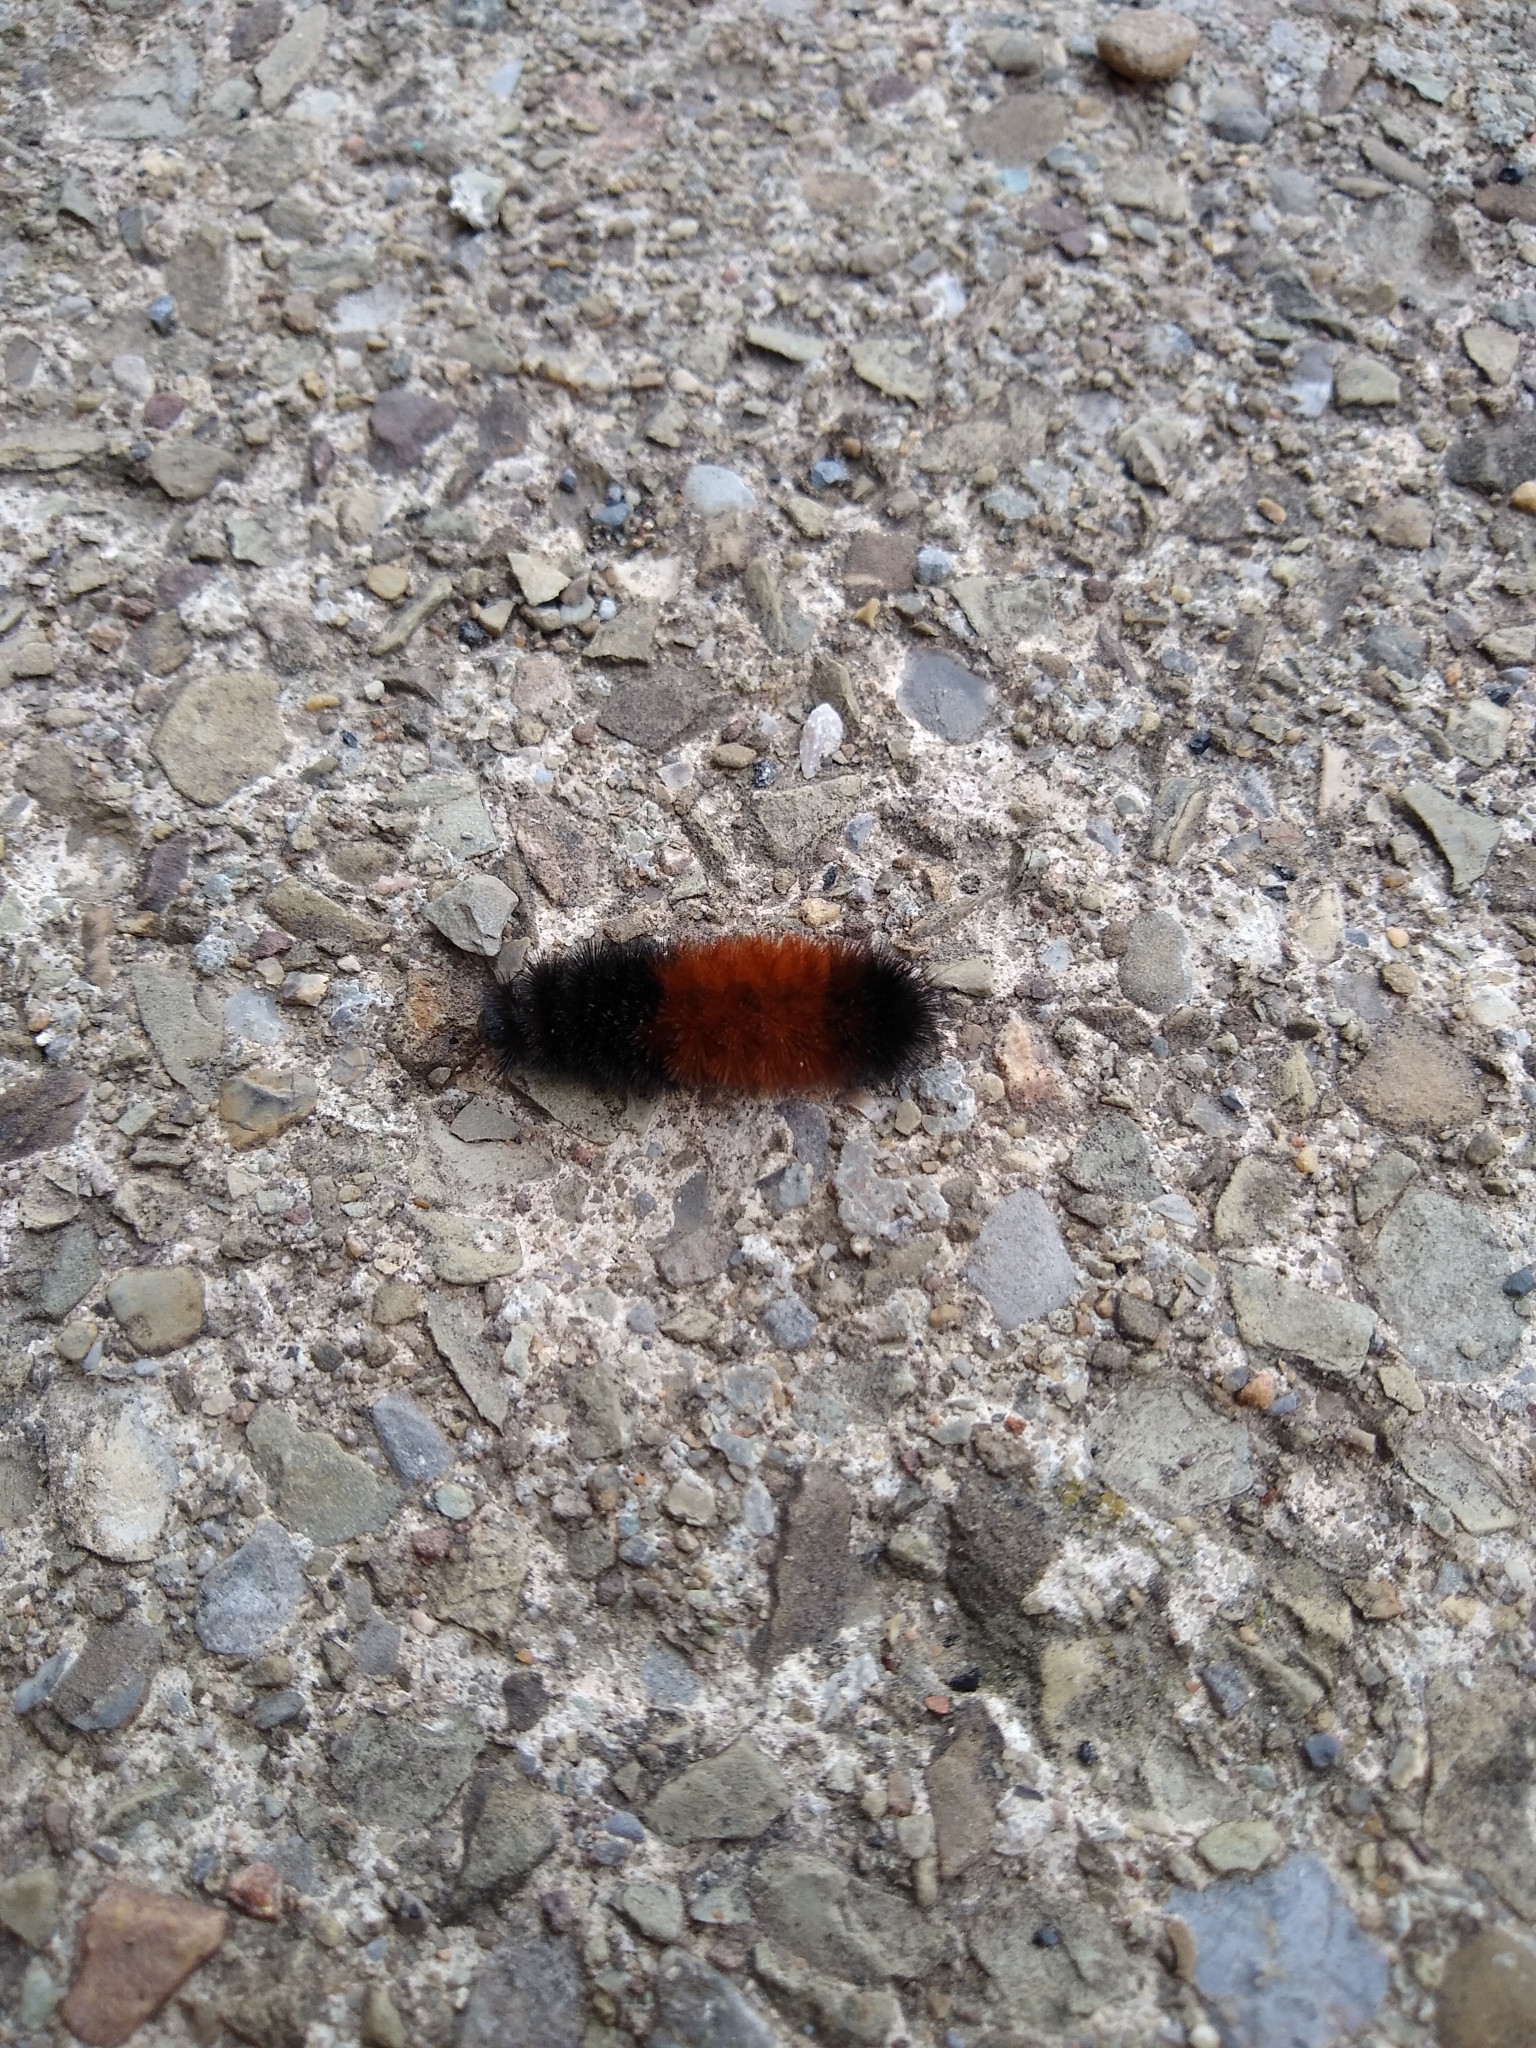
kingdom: Animalia
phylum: Arthropoda
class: Insecta
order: Lepidoptera
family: Erebidae
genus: Pyrrharctia
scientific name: Pyrrharctia isabella
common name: Isabella tiger moth
